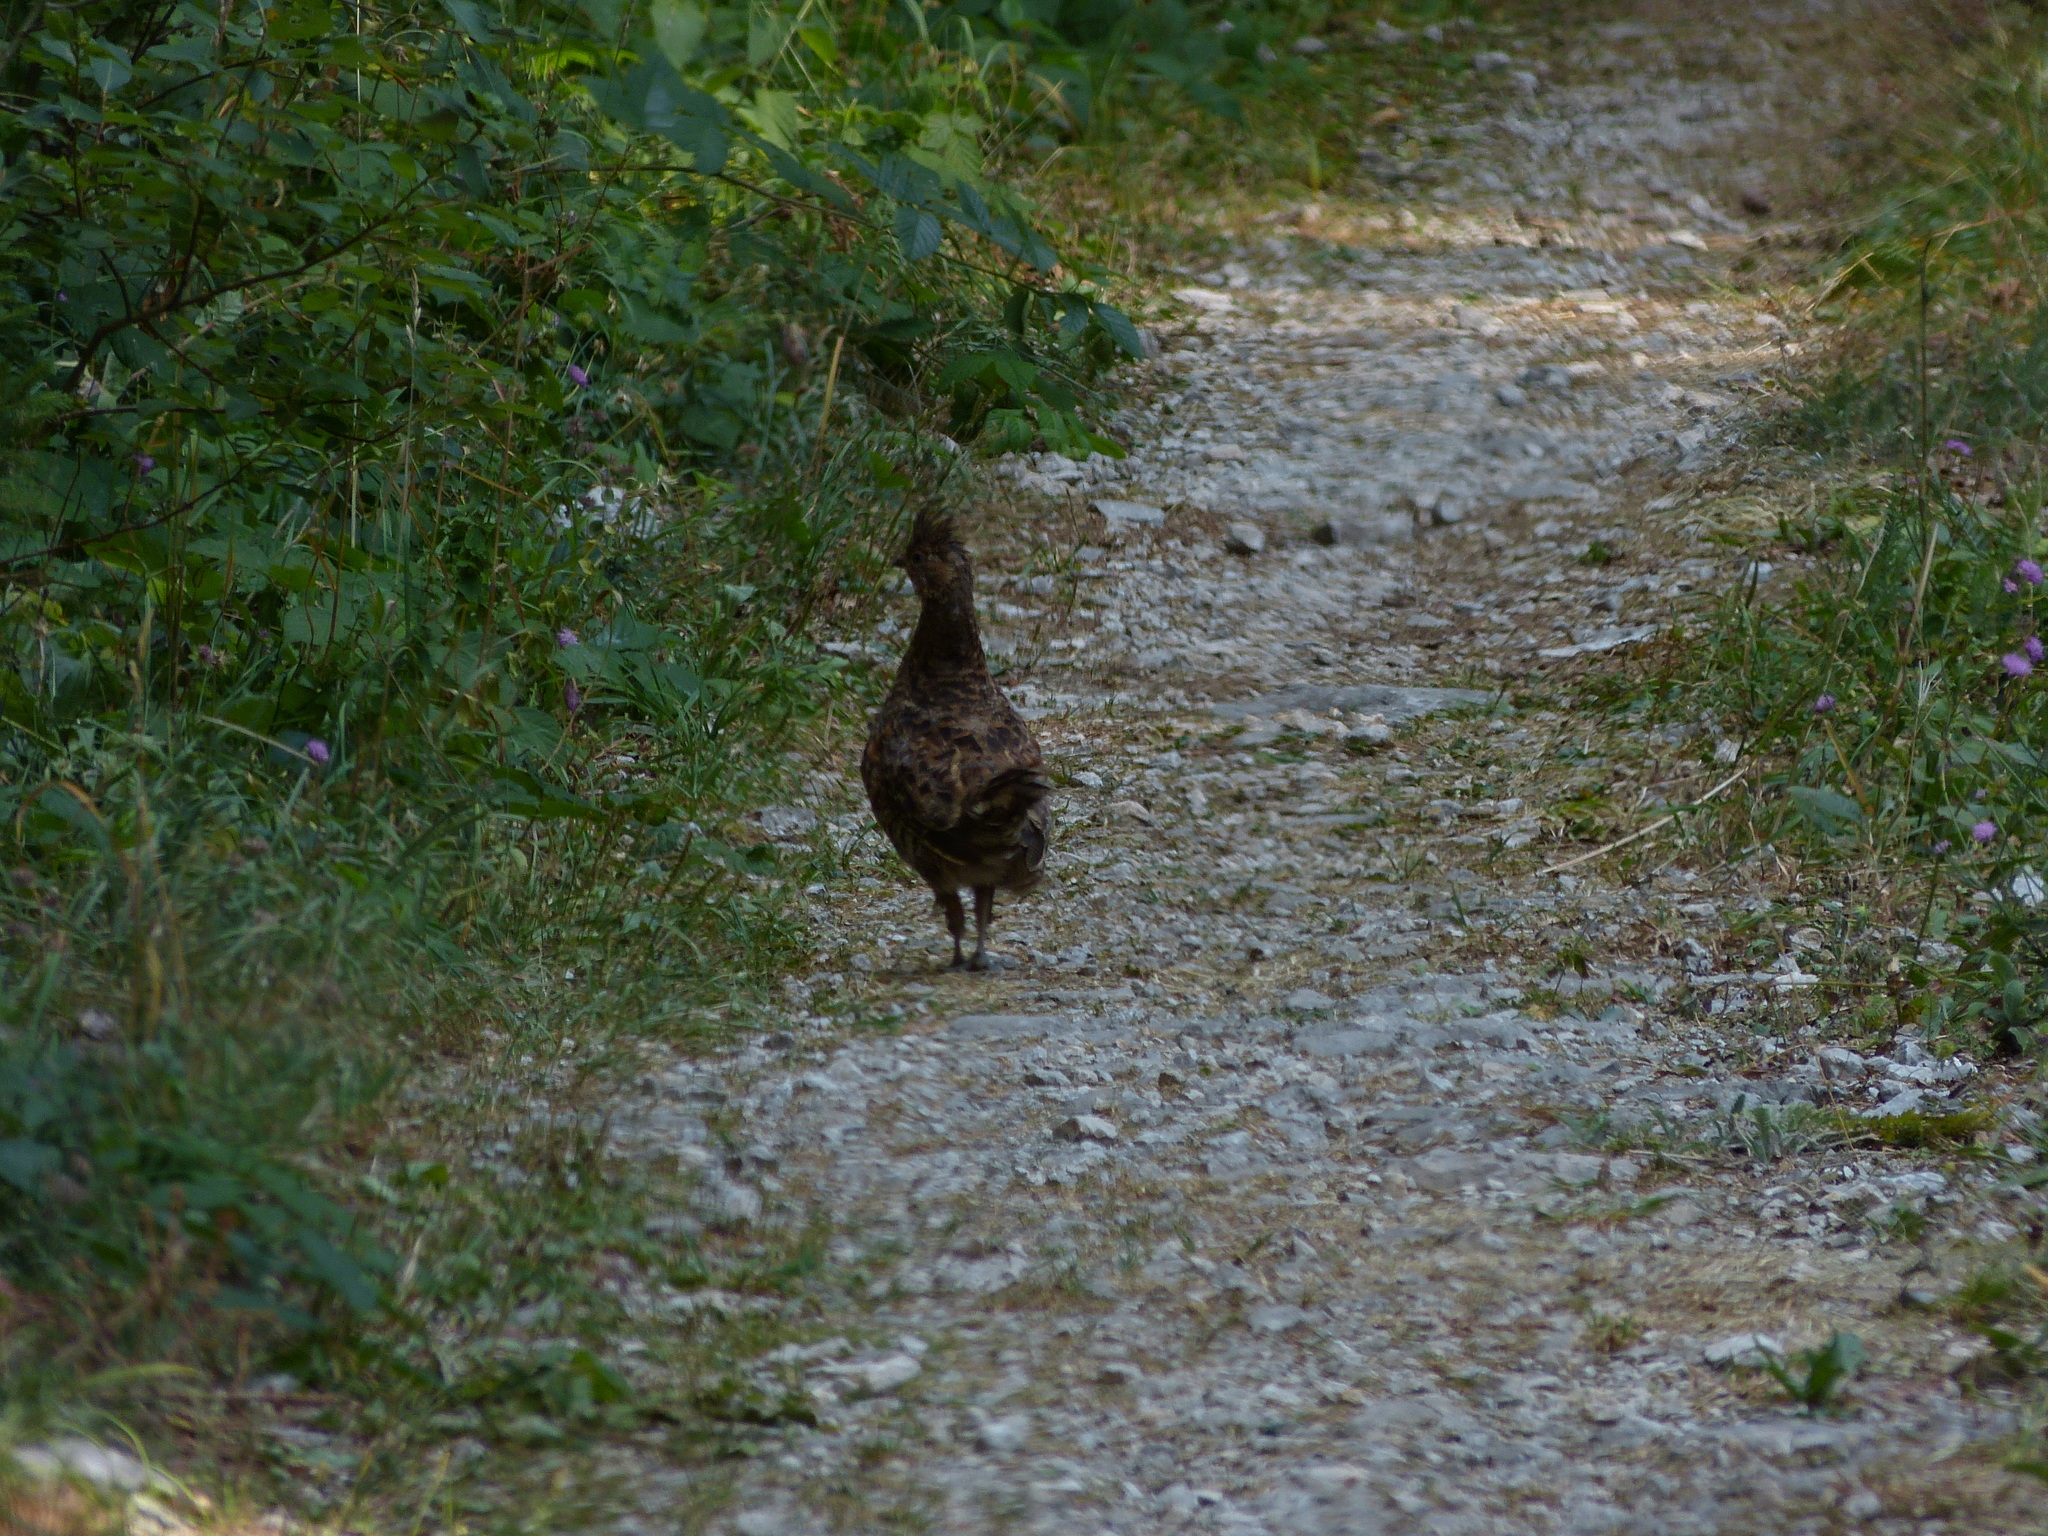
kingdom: Animalia
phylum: Chordata
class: Aves
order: Galliformes
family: Phasianidae
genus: Tetrastes
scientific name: Tetrastes bonasia
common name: Hazel grouse
